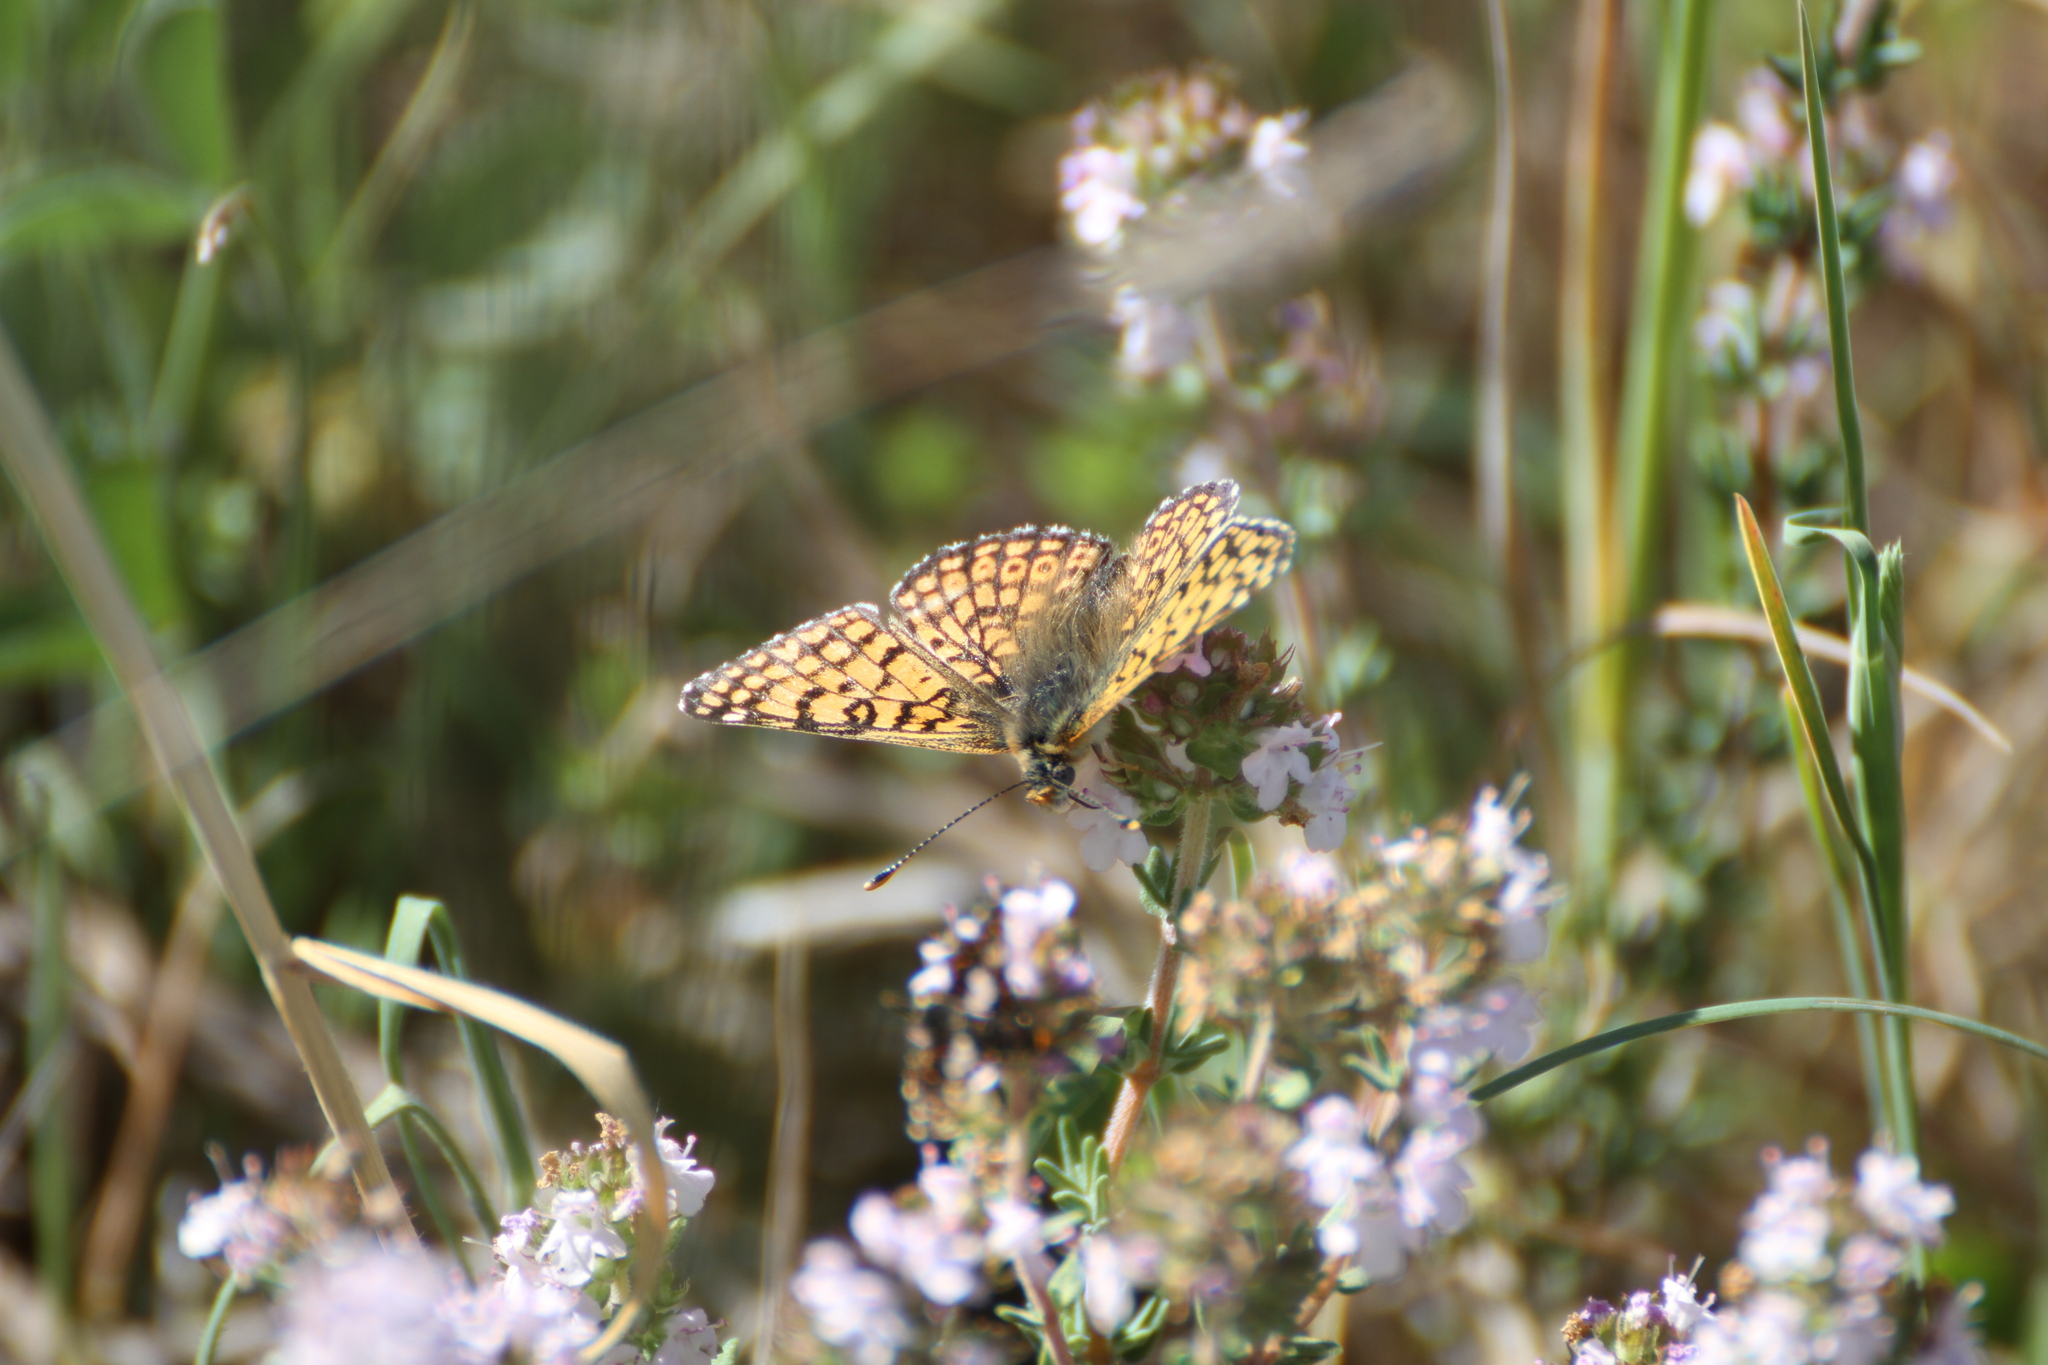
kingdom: Animalia
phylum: Arthropoda
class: Insecta
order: Lepidoptera
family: Nymphalidae
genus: Melitaea
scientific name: Melitaea cinxia
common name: Glanville fritillary
